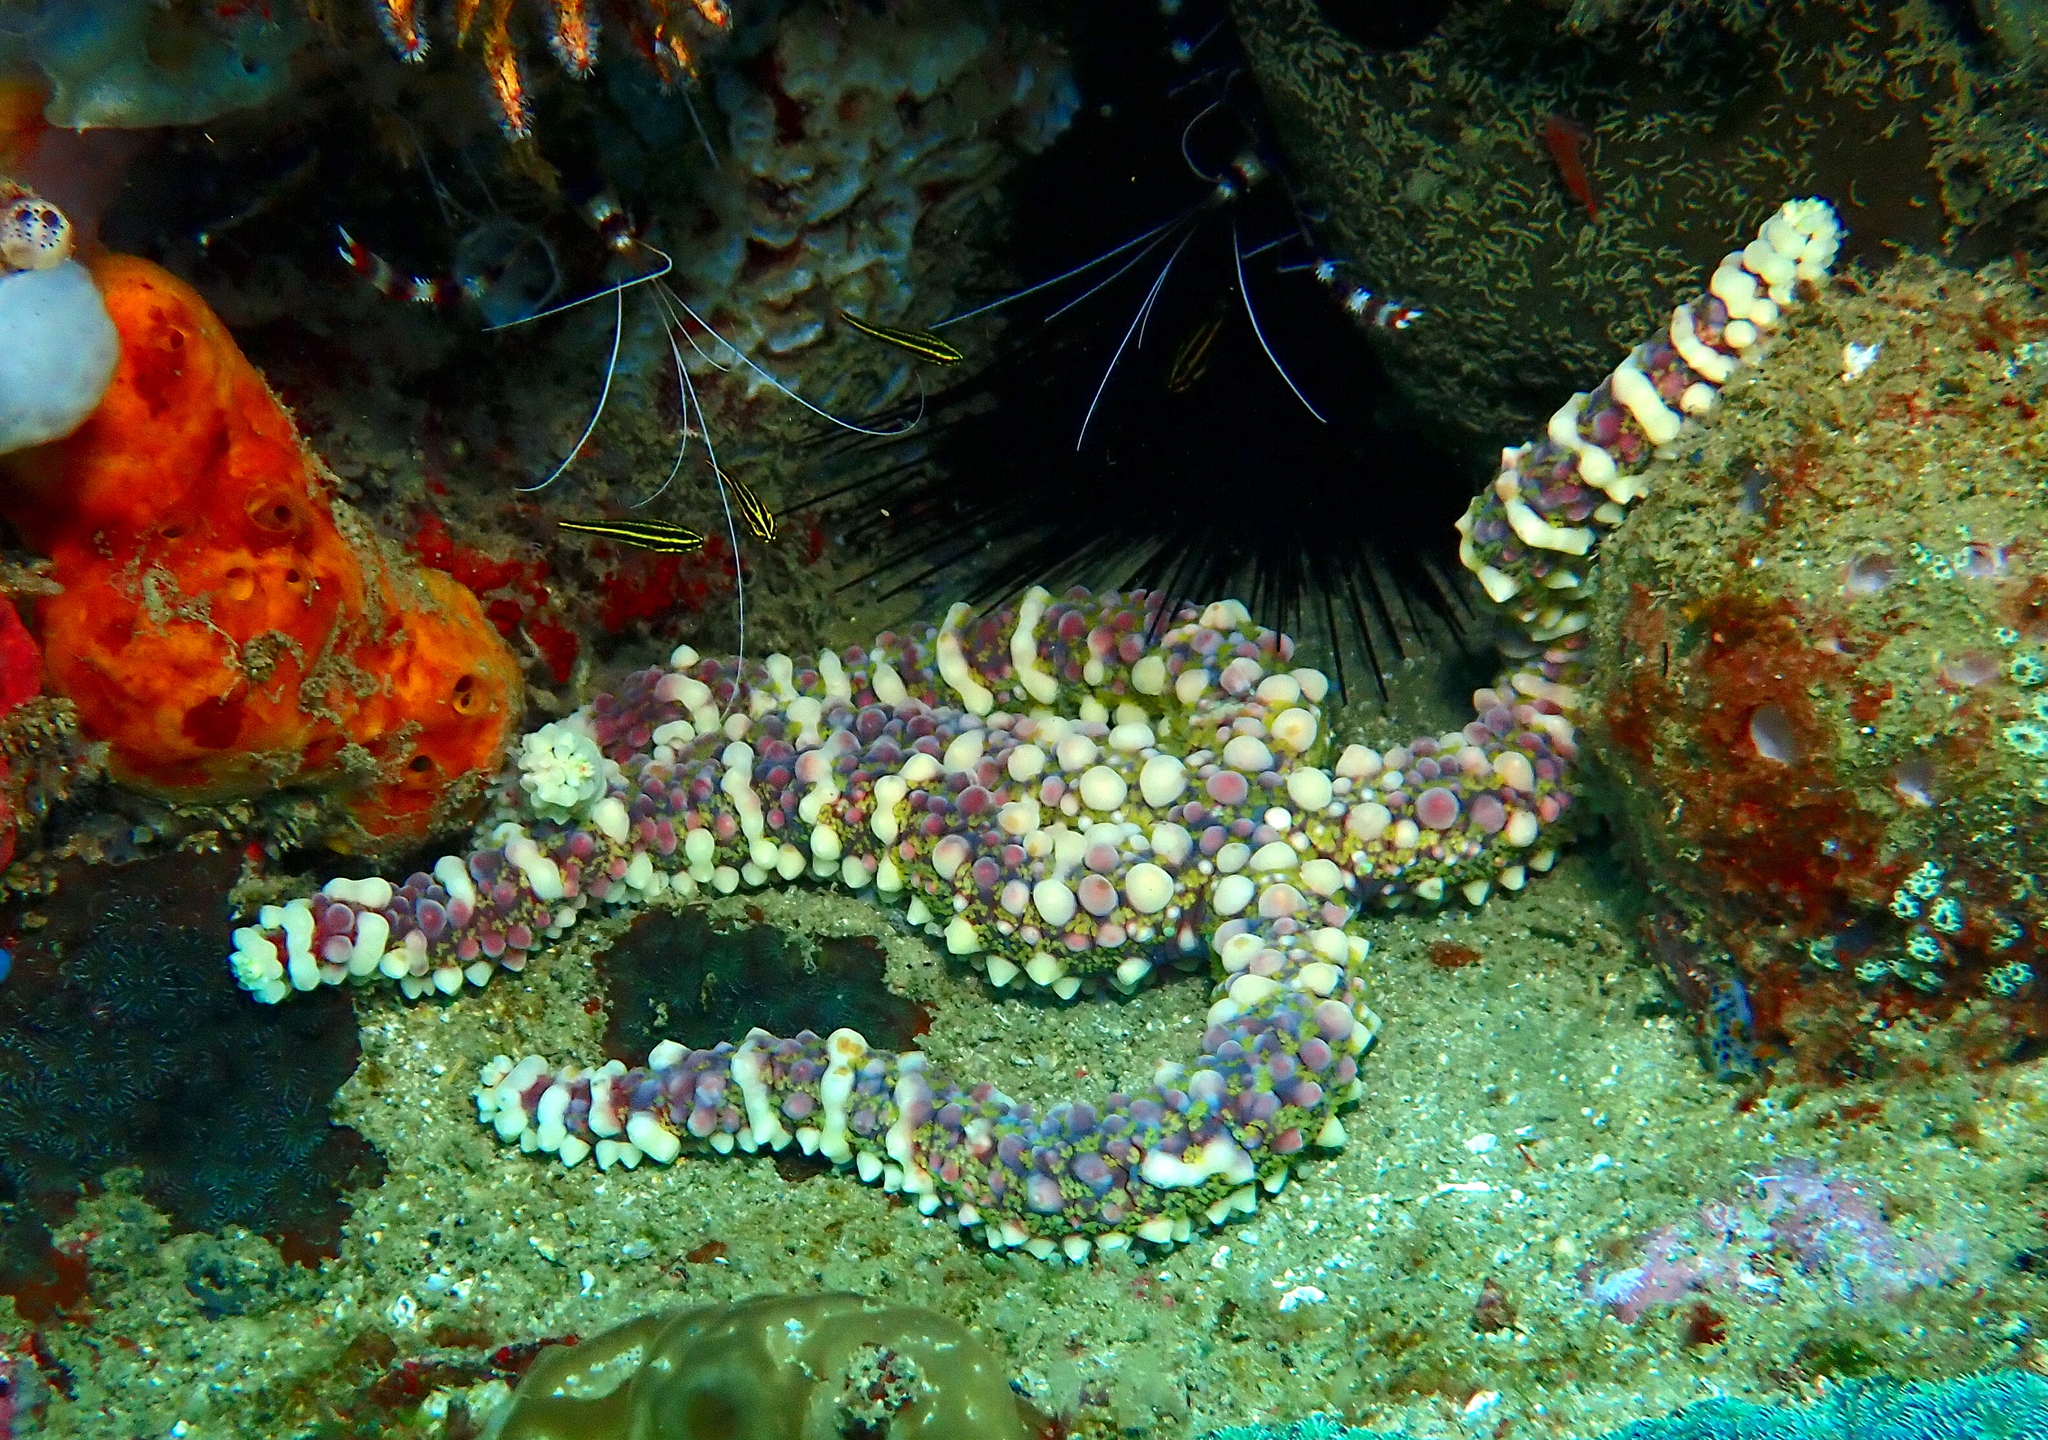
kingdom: Animalia
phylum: Echinodermata
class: Asteroidea
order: Spinulosida
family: Echinasteridae
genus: Echinaster
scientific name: Echinaster callosus
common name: Banded bubble star
